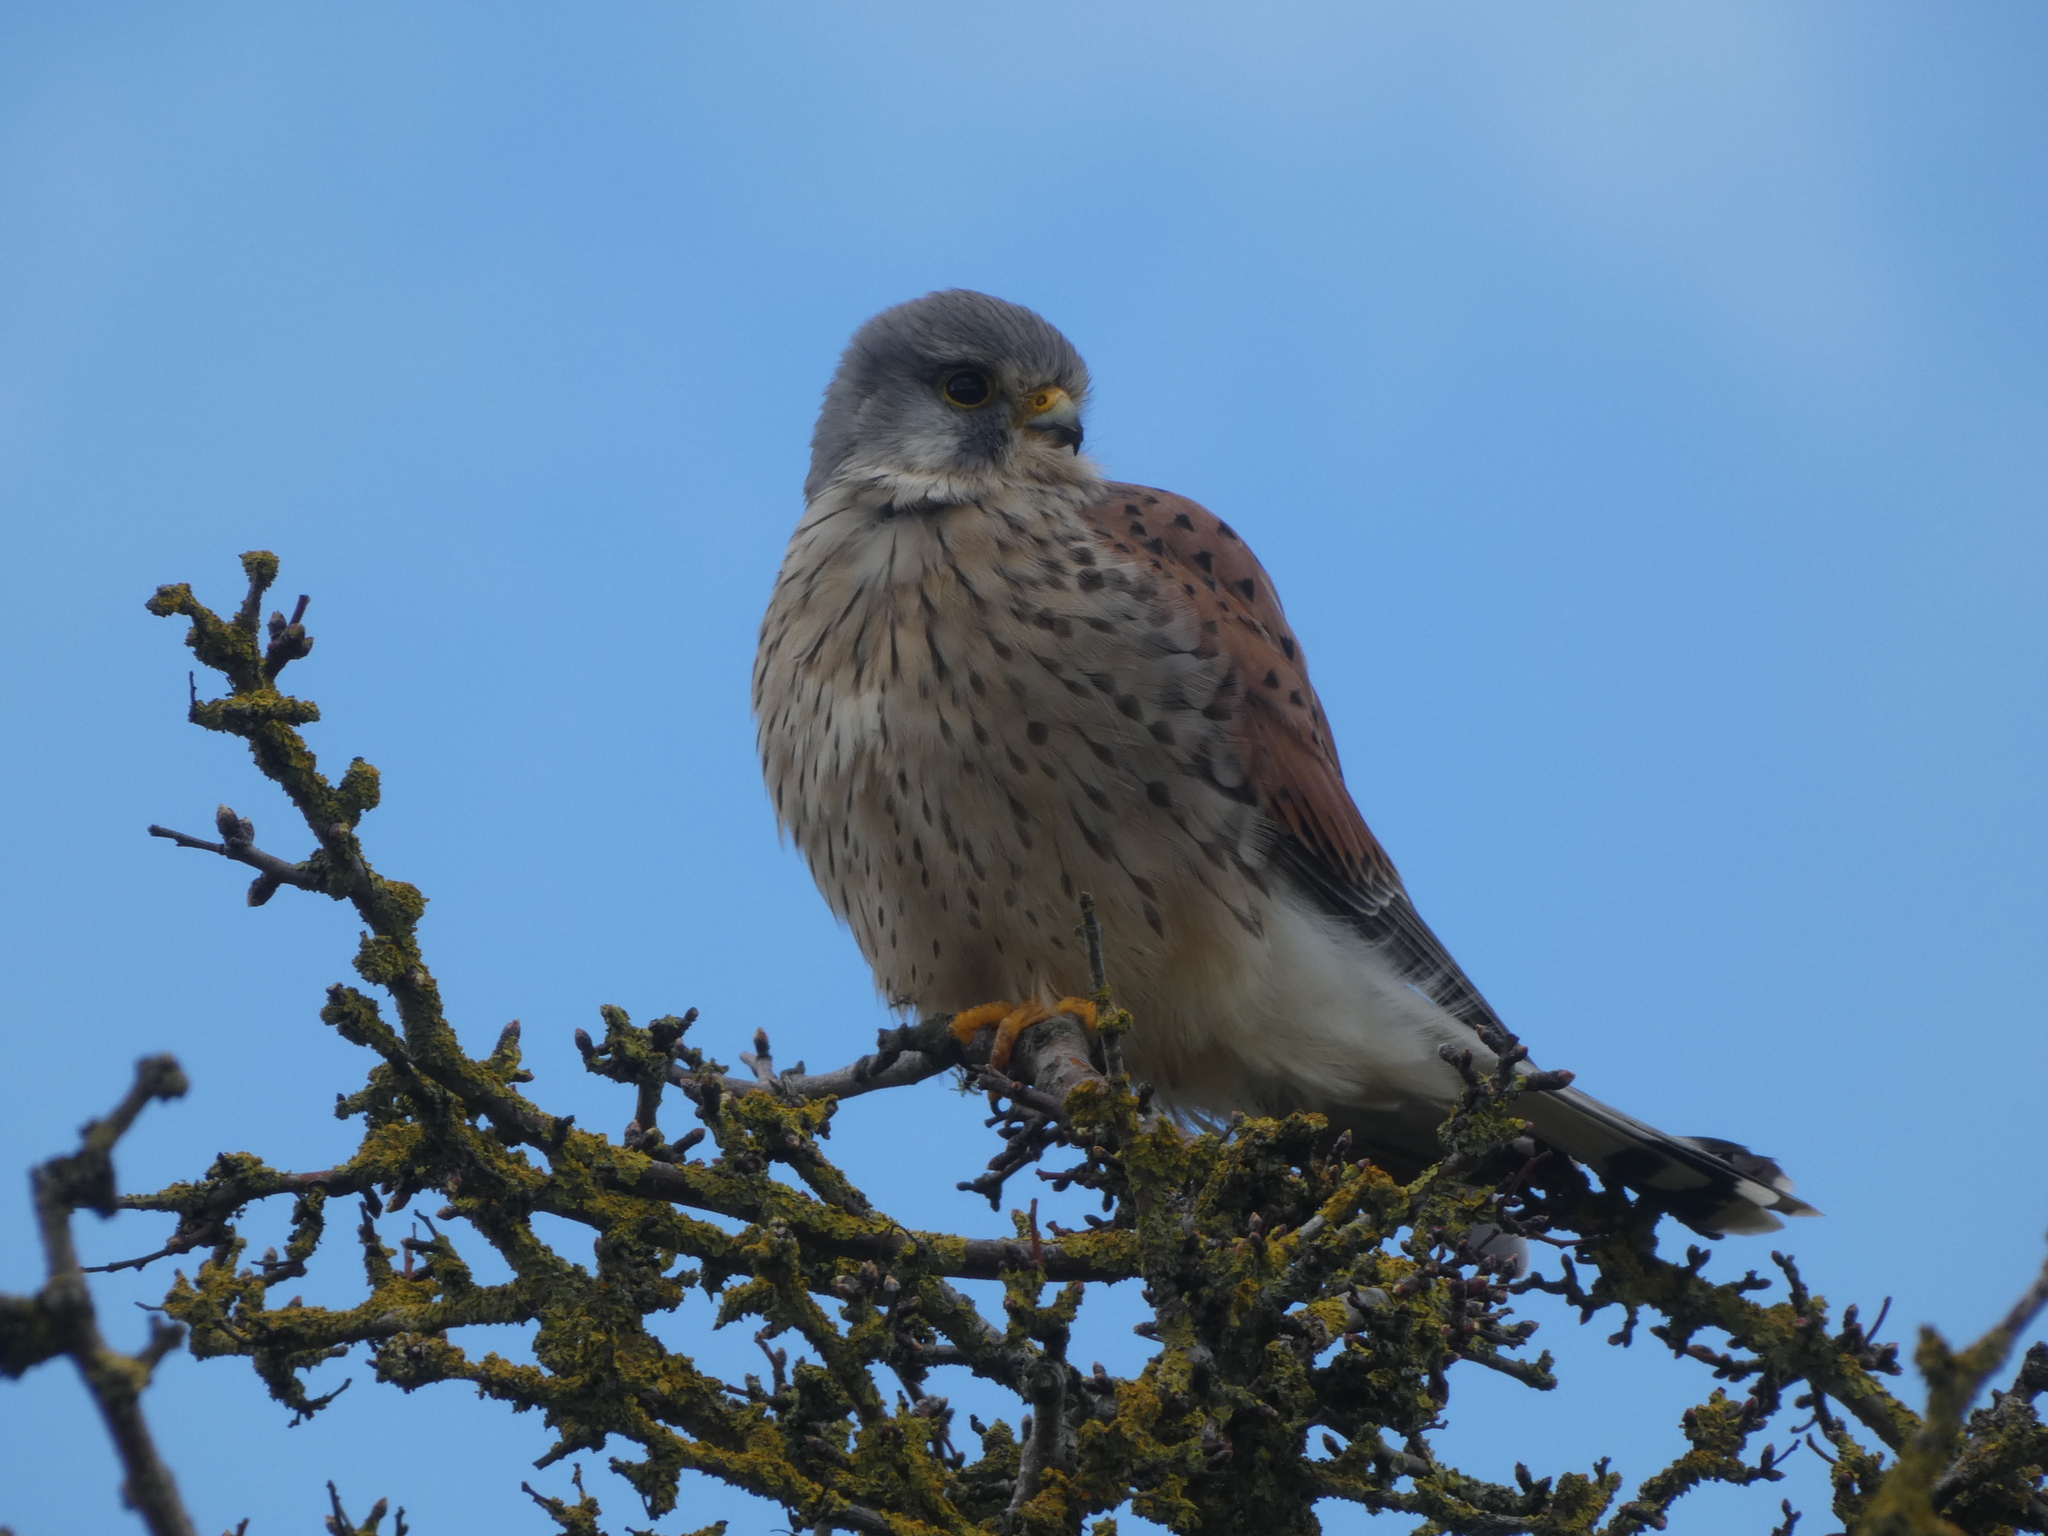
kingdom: Animalia
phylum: Chordata
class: Aves
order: Falconiformes
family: Falconidae
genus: Falco
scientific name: Falco tinnunculus
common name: Common kestrel
